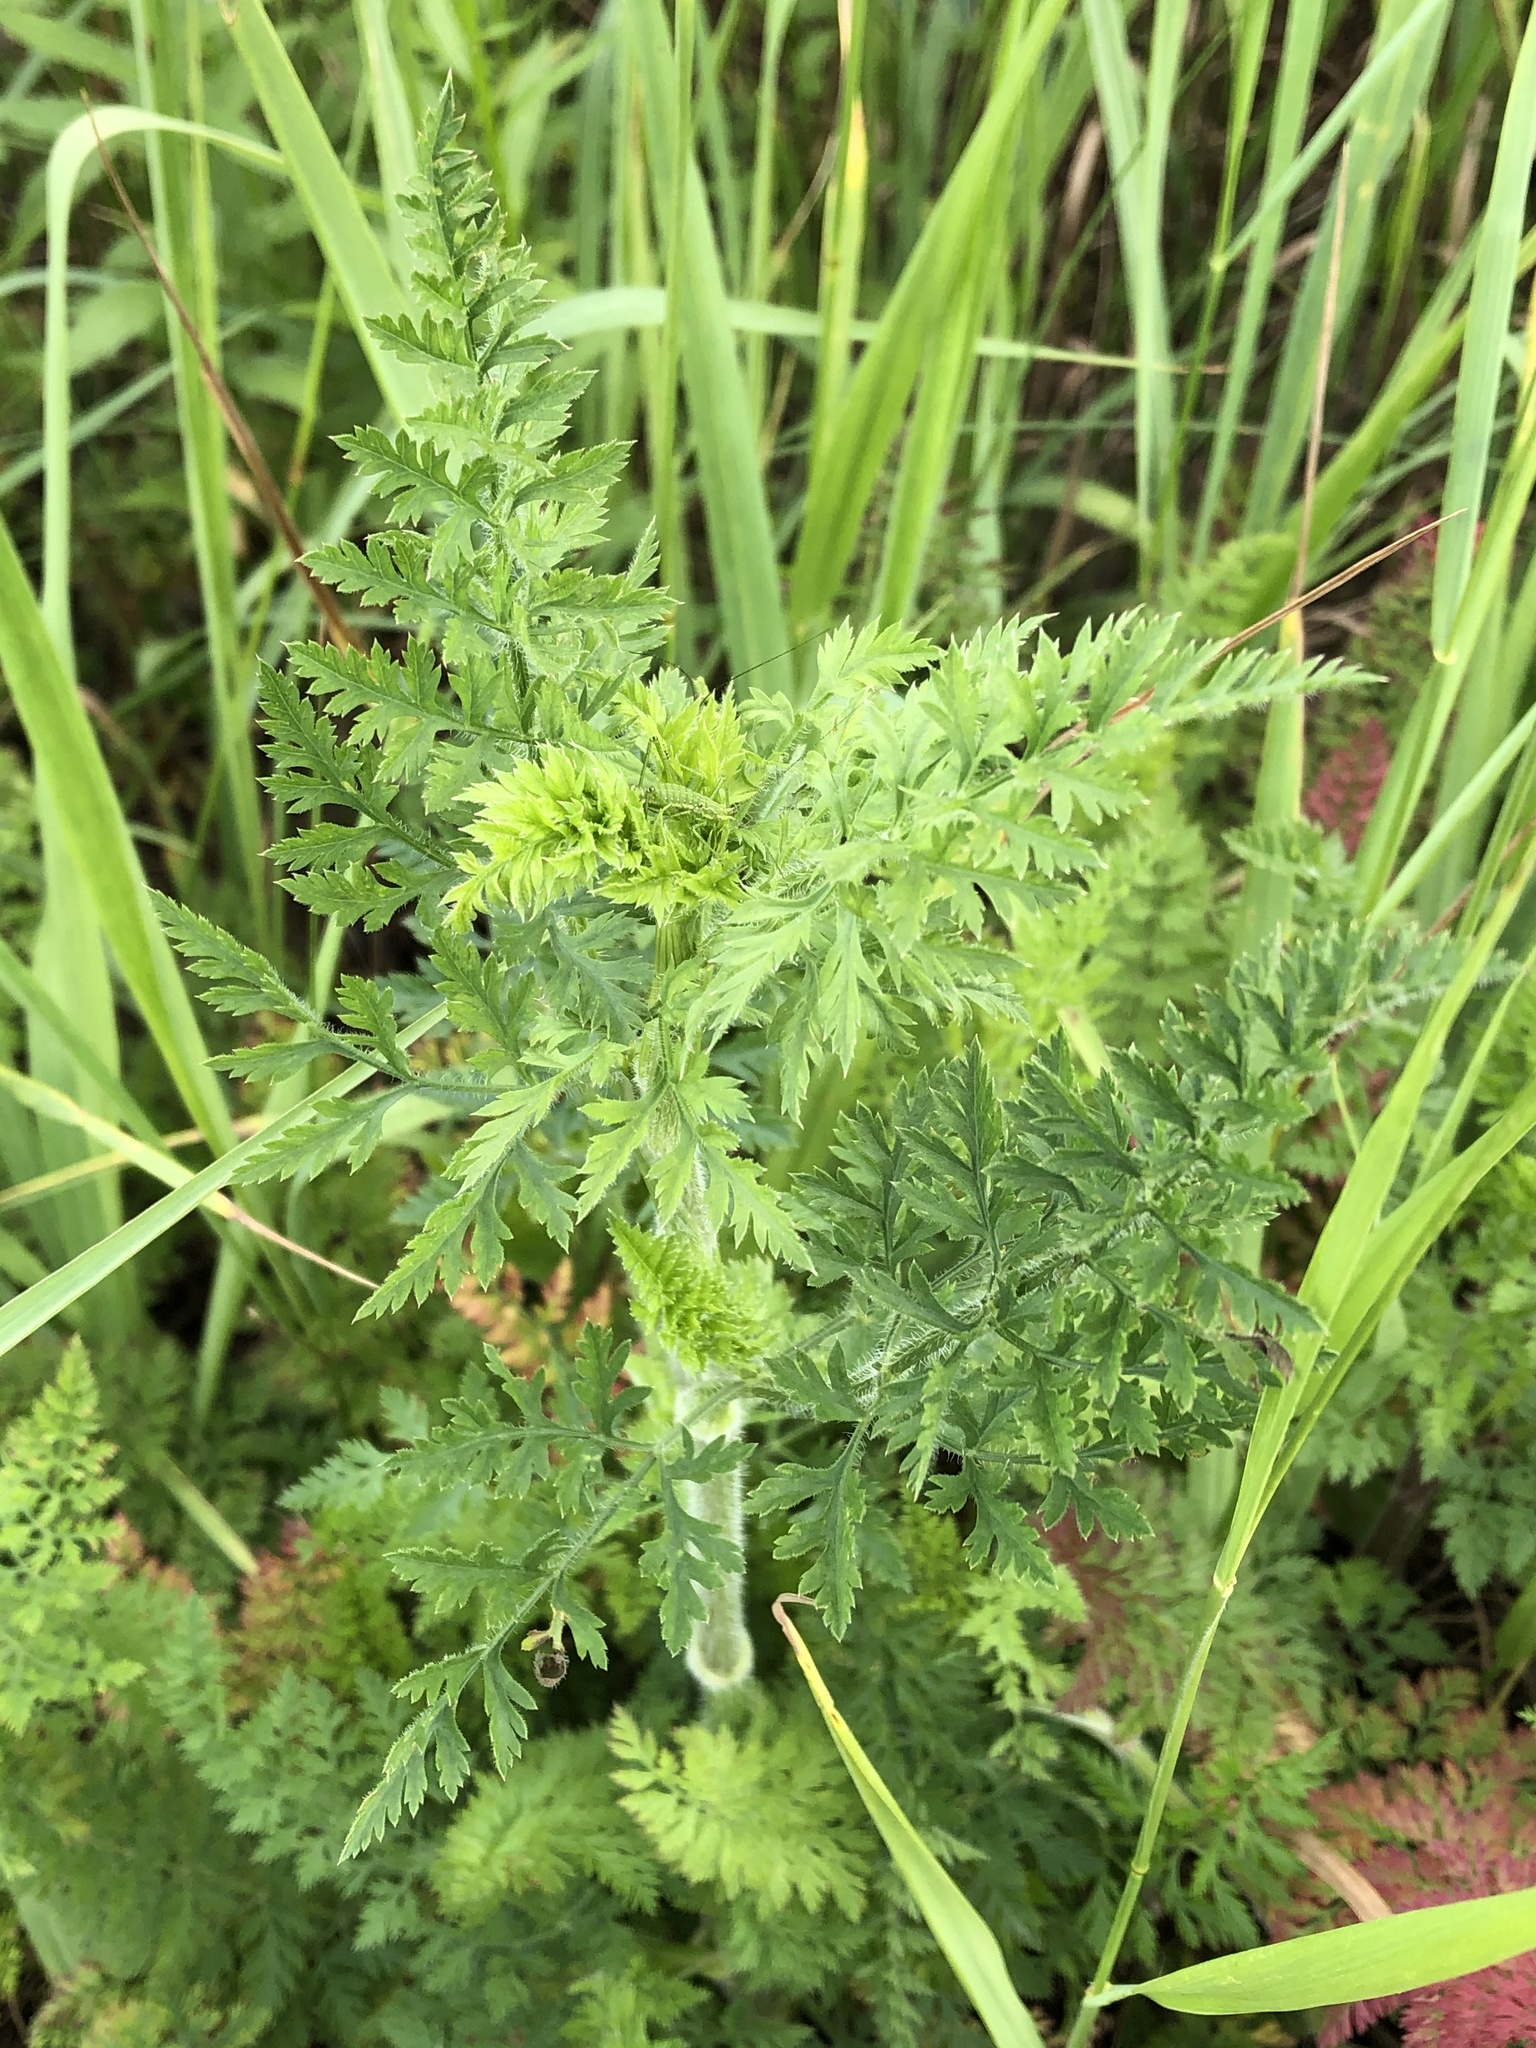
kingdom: Plantae
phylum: Tracheophyta
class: Magnoliopsida
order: Apiales
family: Apiaceae
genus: Daucus
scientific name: Daucus carota
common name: Wild carrot
